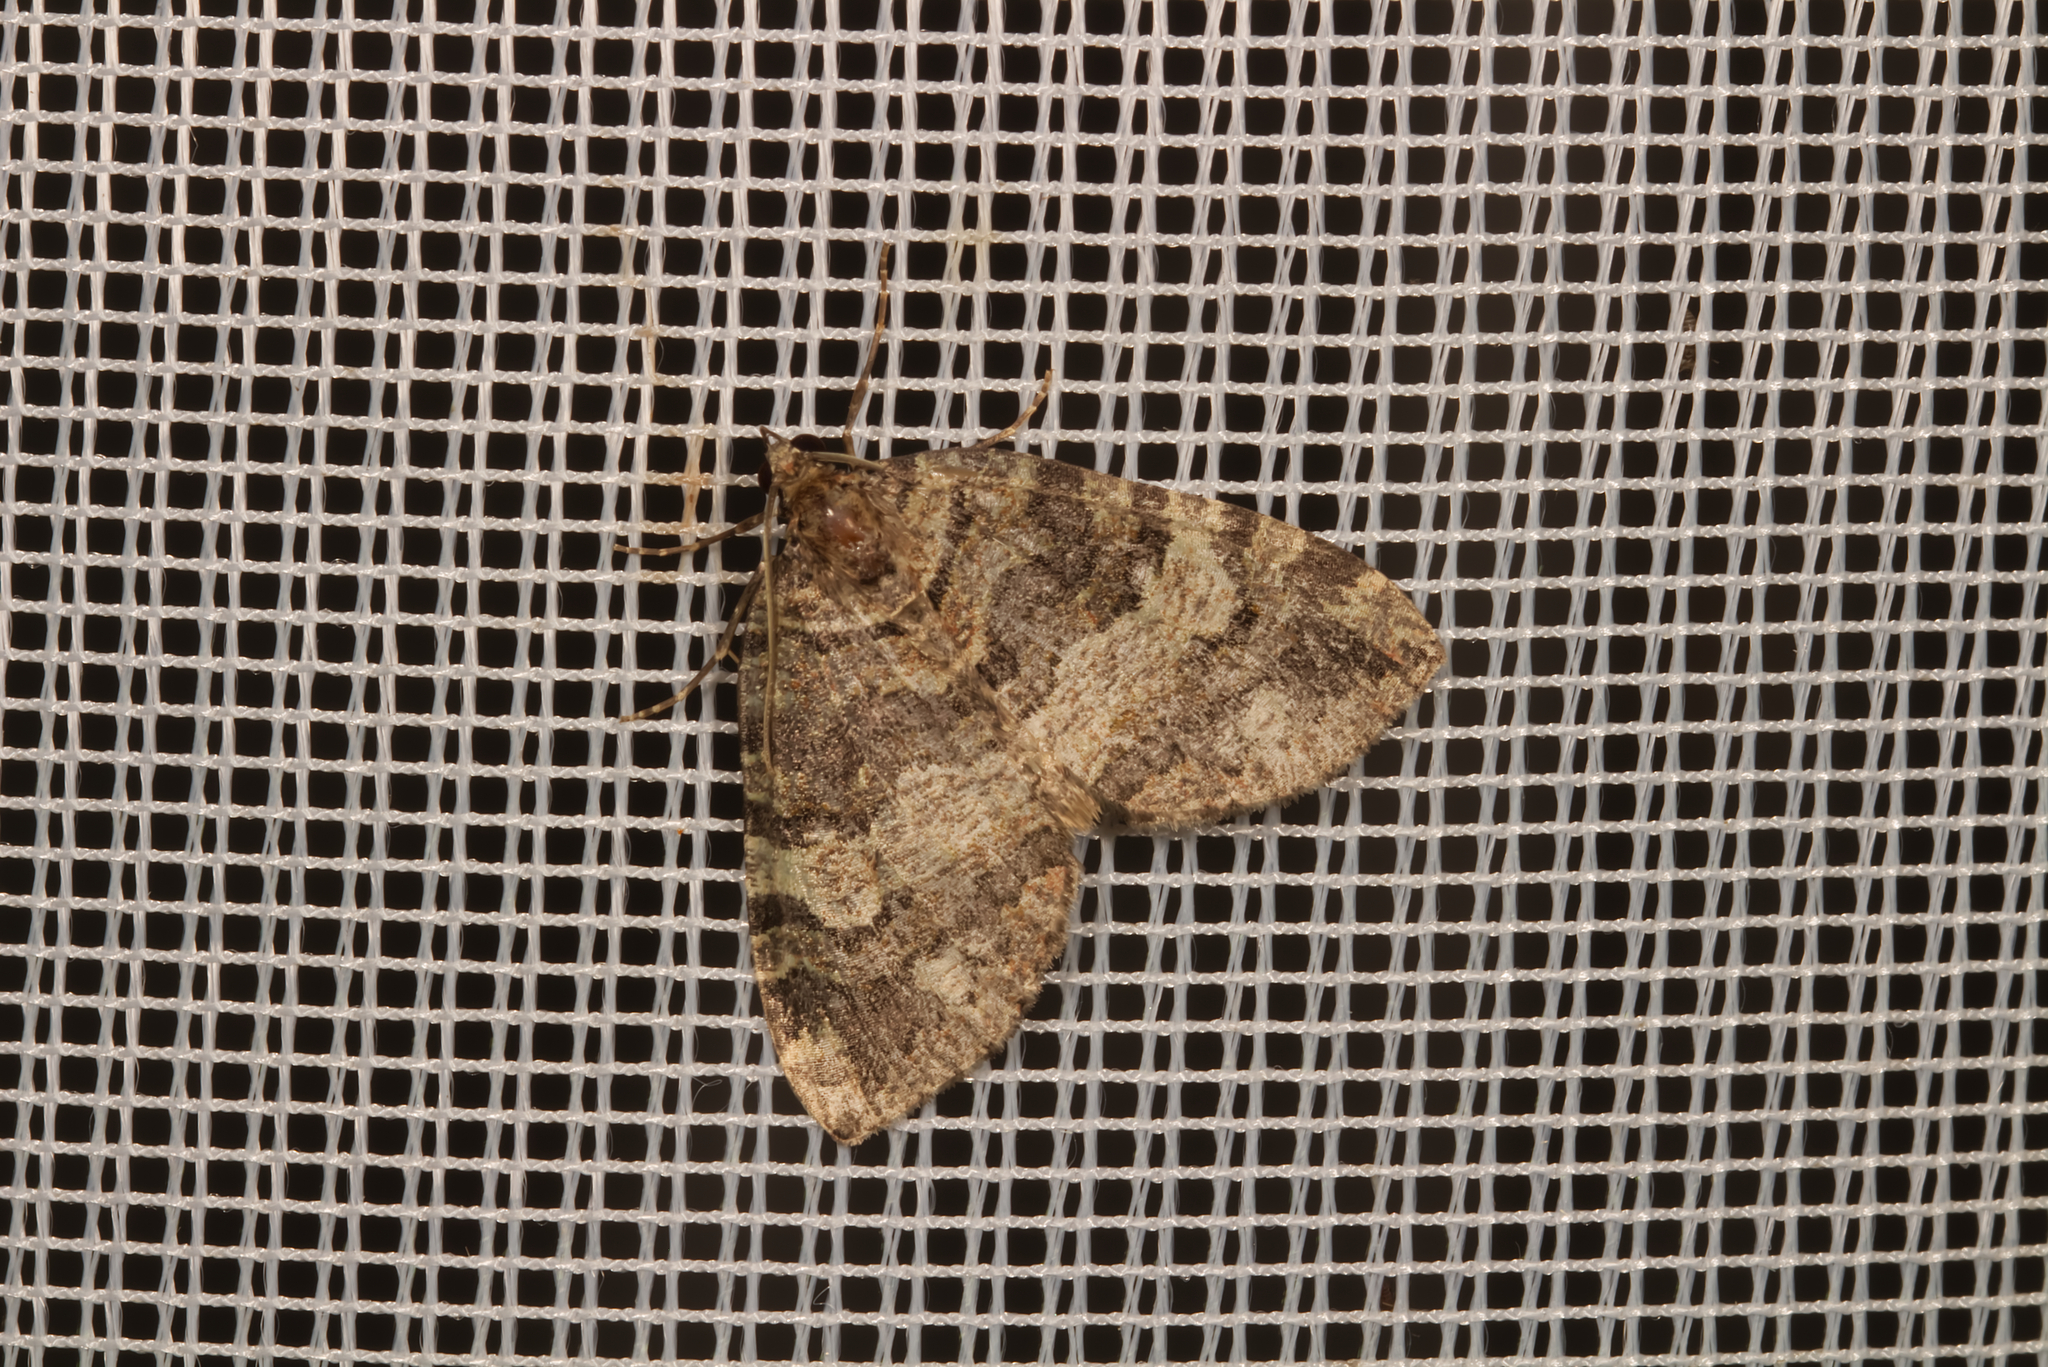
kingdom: Animalia
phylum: Arthropoda
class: Insecta
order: Lepidoptera
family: Geometridae
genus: Hydriomena
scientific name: Hydriomena furcata
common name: July highflyer
